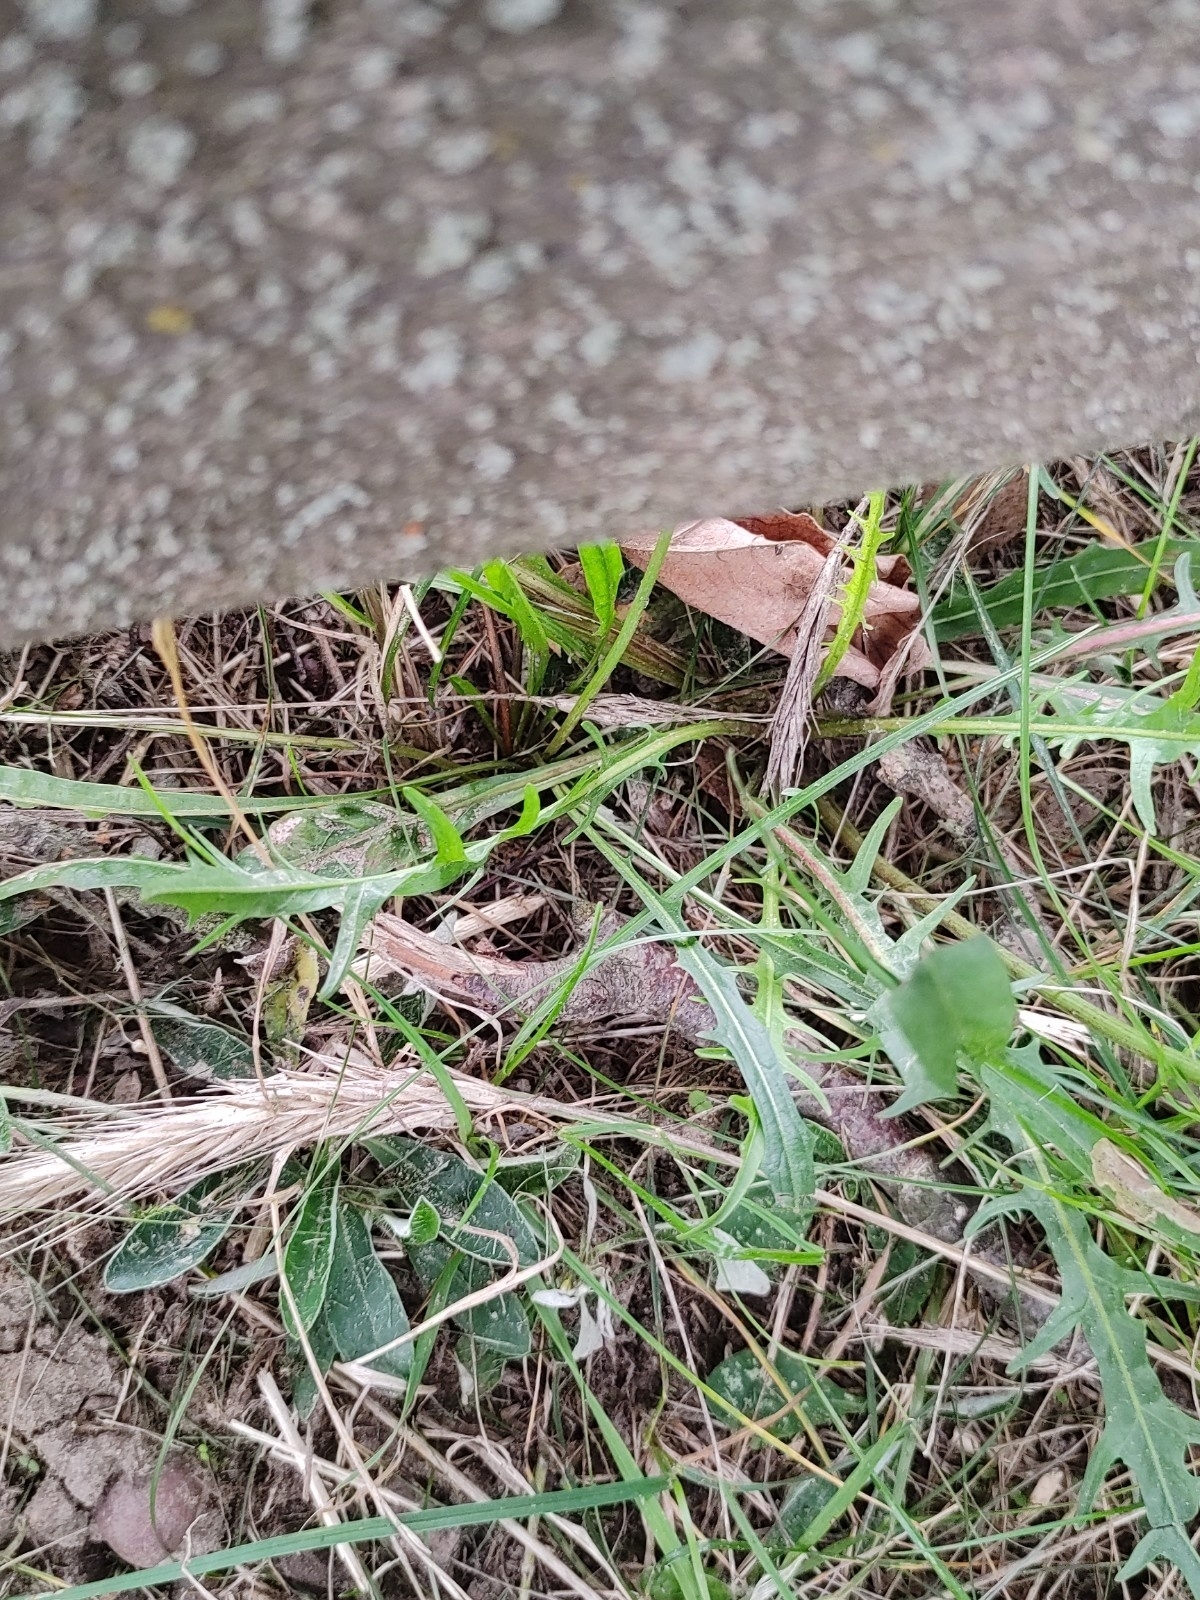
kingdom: Plantae
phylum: Tracheophyta
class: Magnoliopsida
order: Asterales
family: Asteraceae
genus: Scorzoneroides
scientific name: Scorzoneroides autumnalis
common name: Autumn hawkbit
